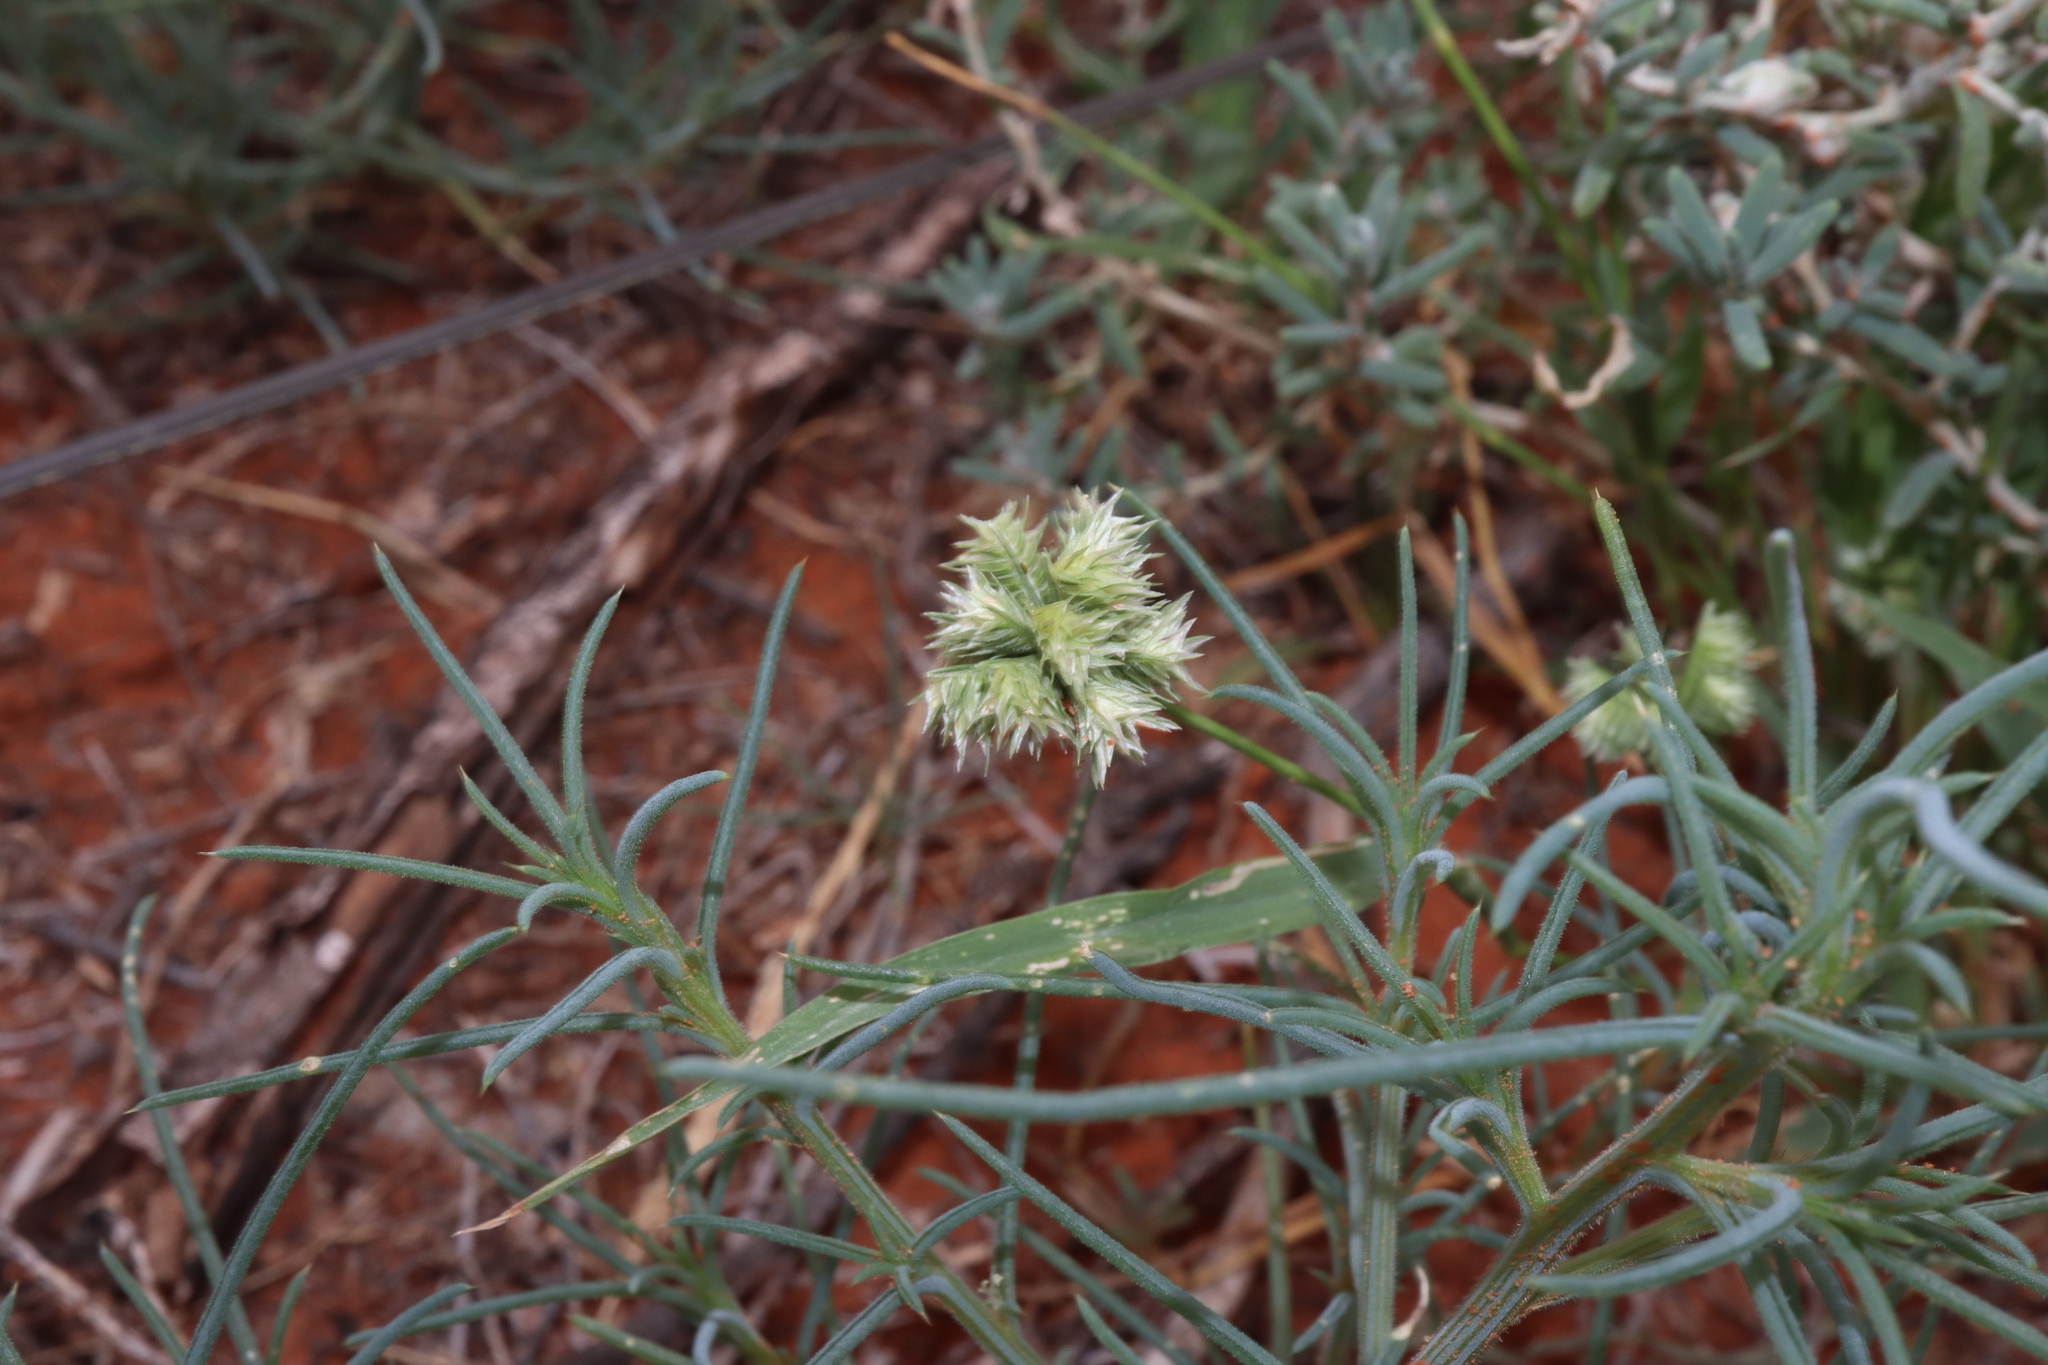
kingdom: Plantae
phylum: Tracheophyta
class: Liliopsida
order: Poales
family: Poaceae
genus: Dactyloctenium
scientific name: Dactyloctenium radulans
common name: Button-grass
